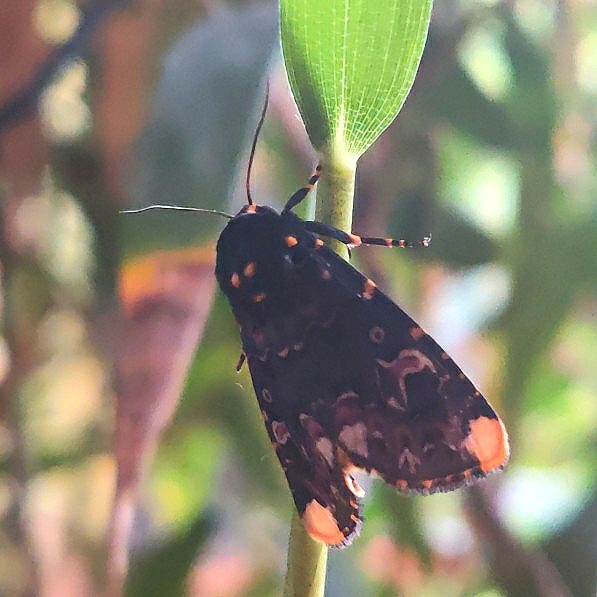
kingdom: Animalia
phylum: Arthropoda
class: Insecta
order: Lepidoptera
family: Noctuidae
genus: Polytela
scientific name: Polytela gloriosae
